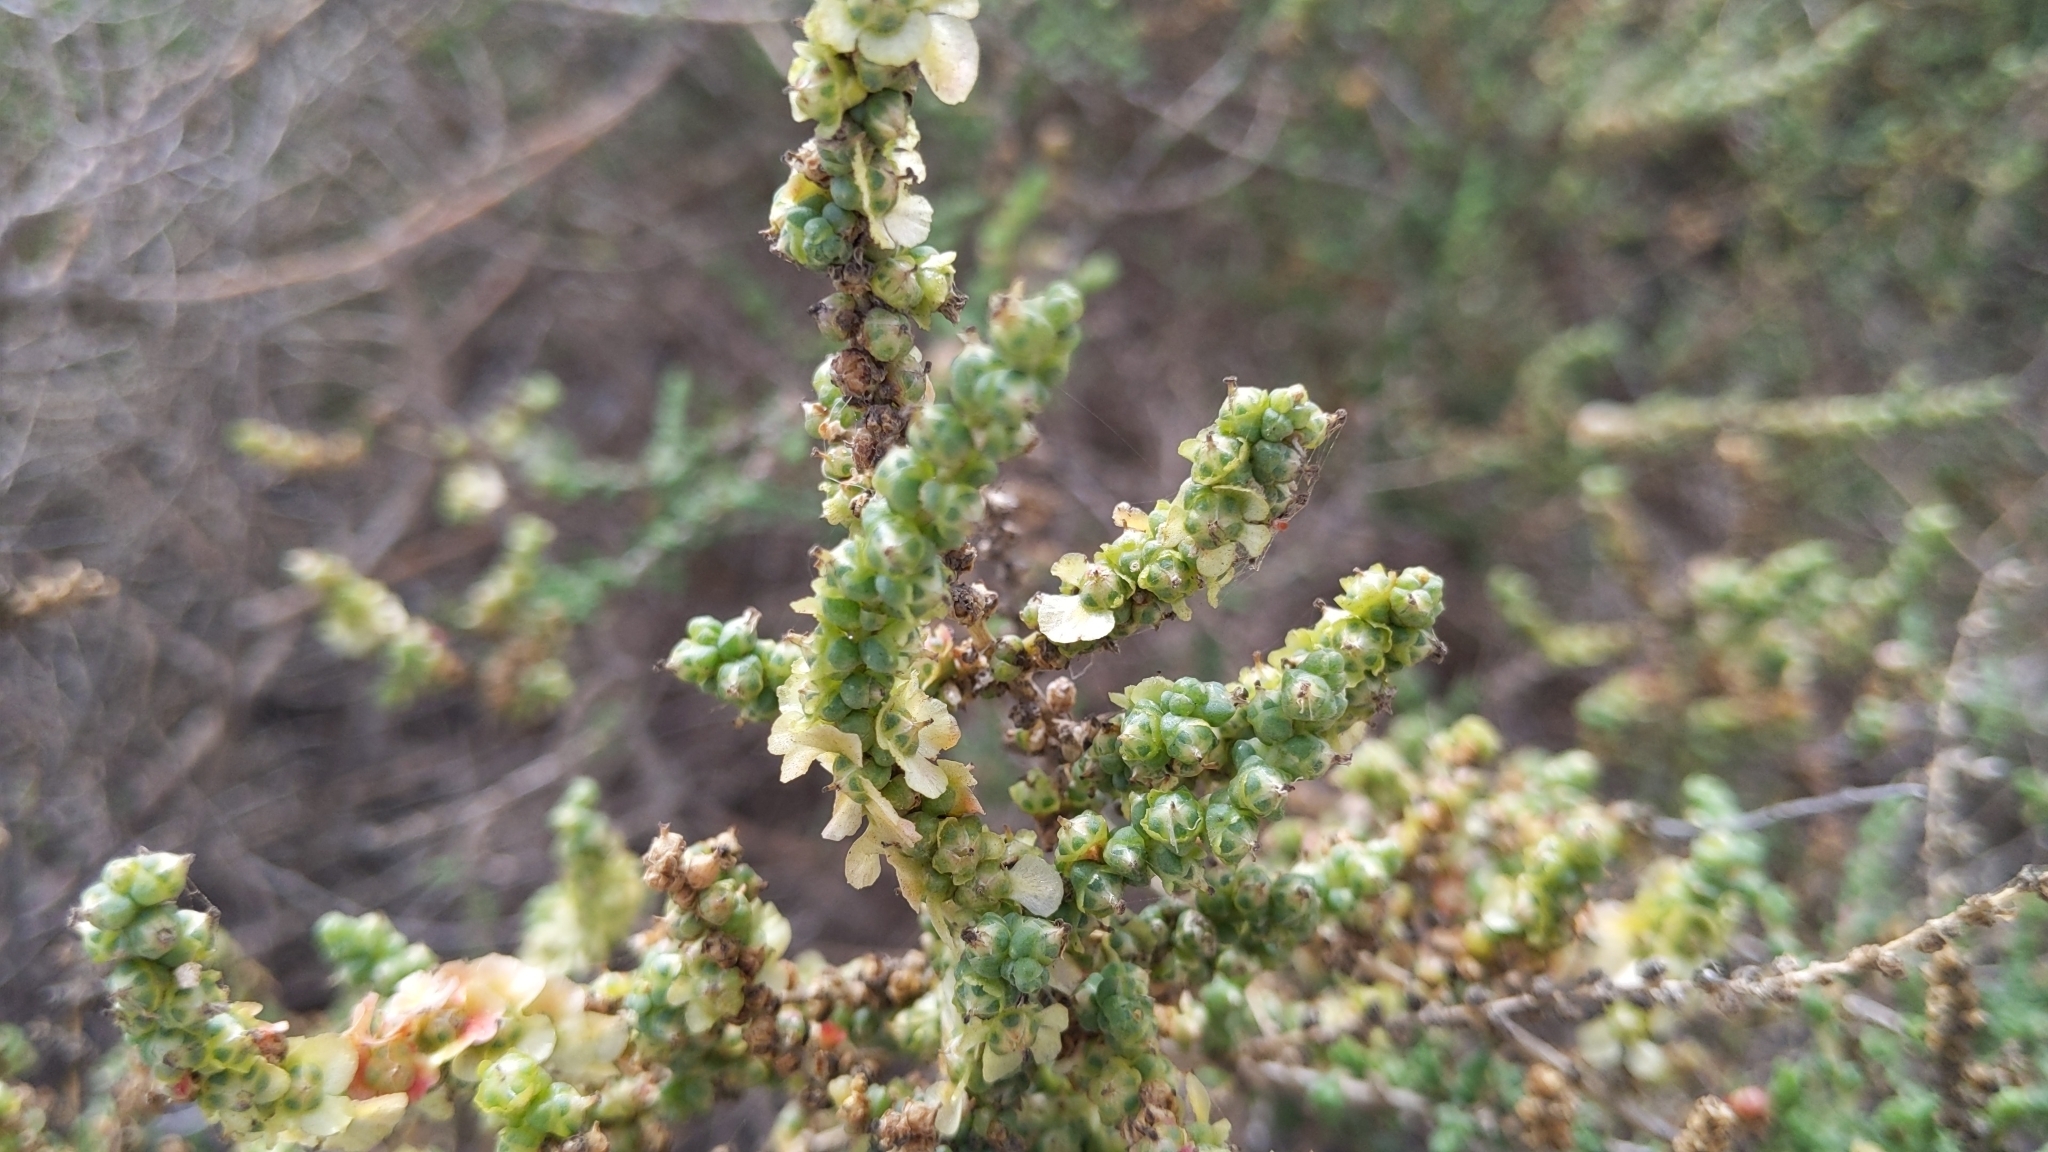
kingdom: Plantae
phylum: Tracheophyta
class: Magnoliopsida
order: Caryophyllales
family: Amaranthaceae
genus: Nitrosalsola
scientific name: Nitrosalsola vermiculata
